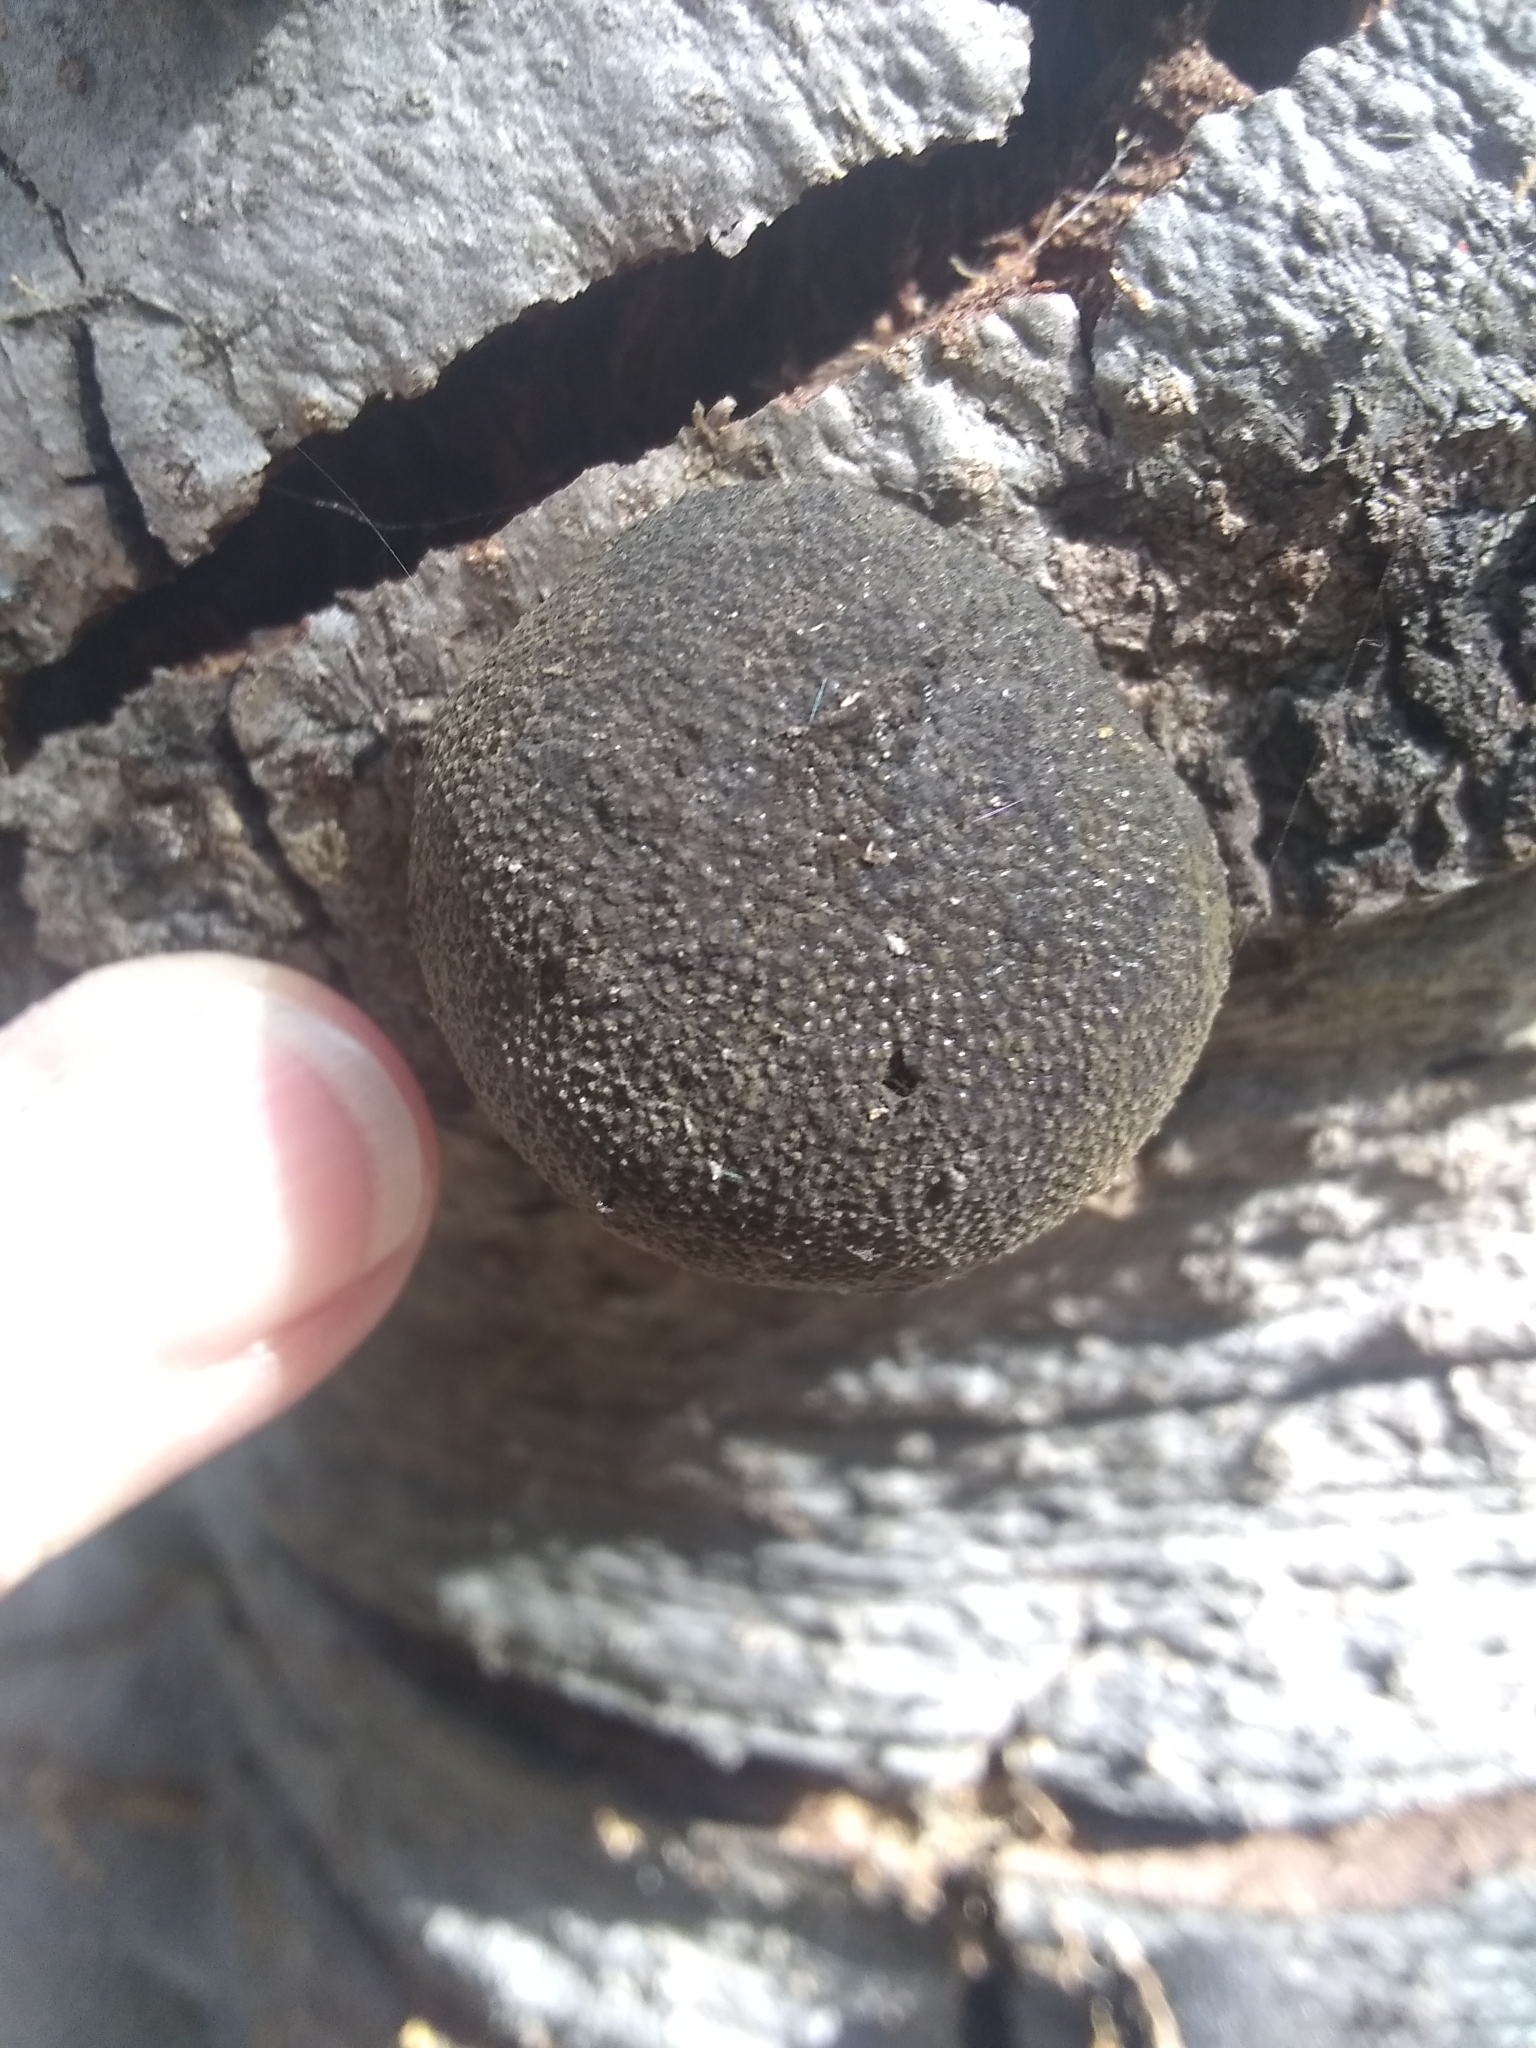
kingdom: Fungi
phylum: Ascomycota
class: Sordariomycetes
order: Xylariales
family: Hypoxylaceae
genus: Annulohypoxylon
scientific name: Annulohypoxylon thouarsianum
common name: Cramp balls
